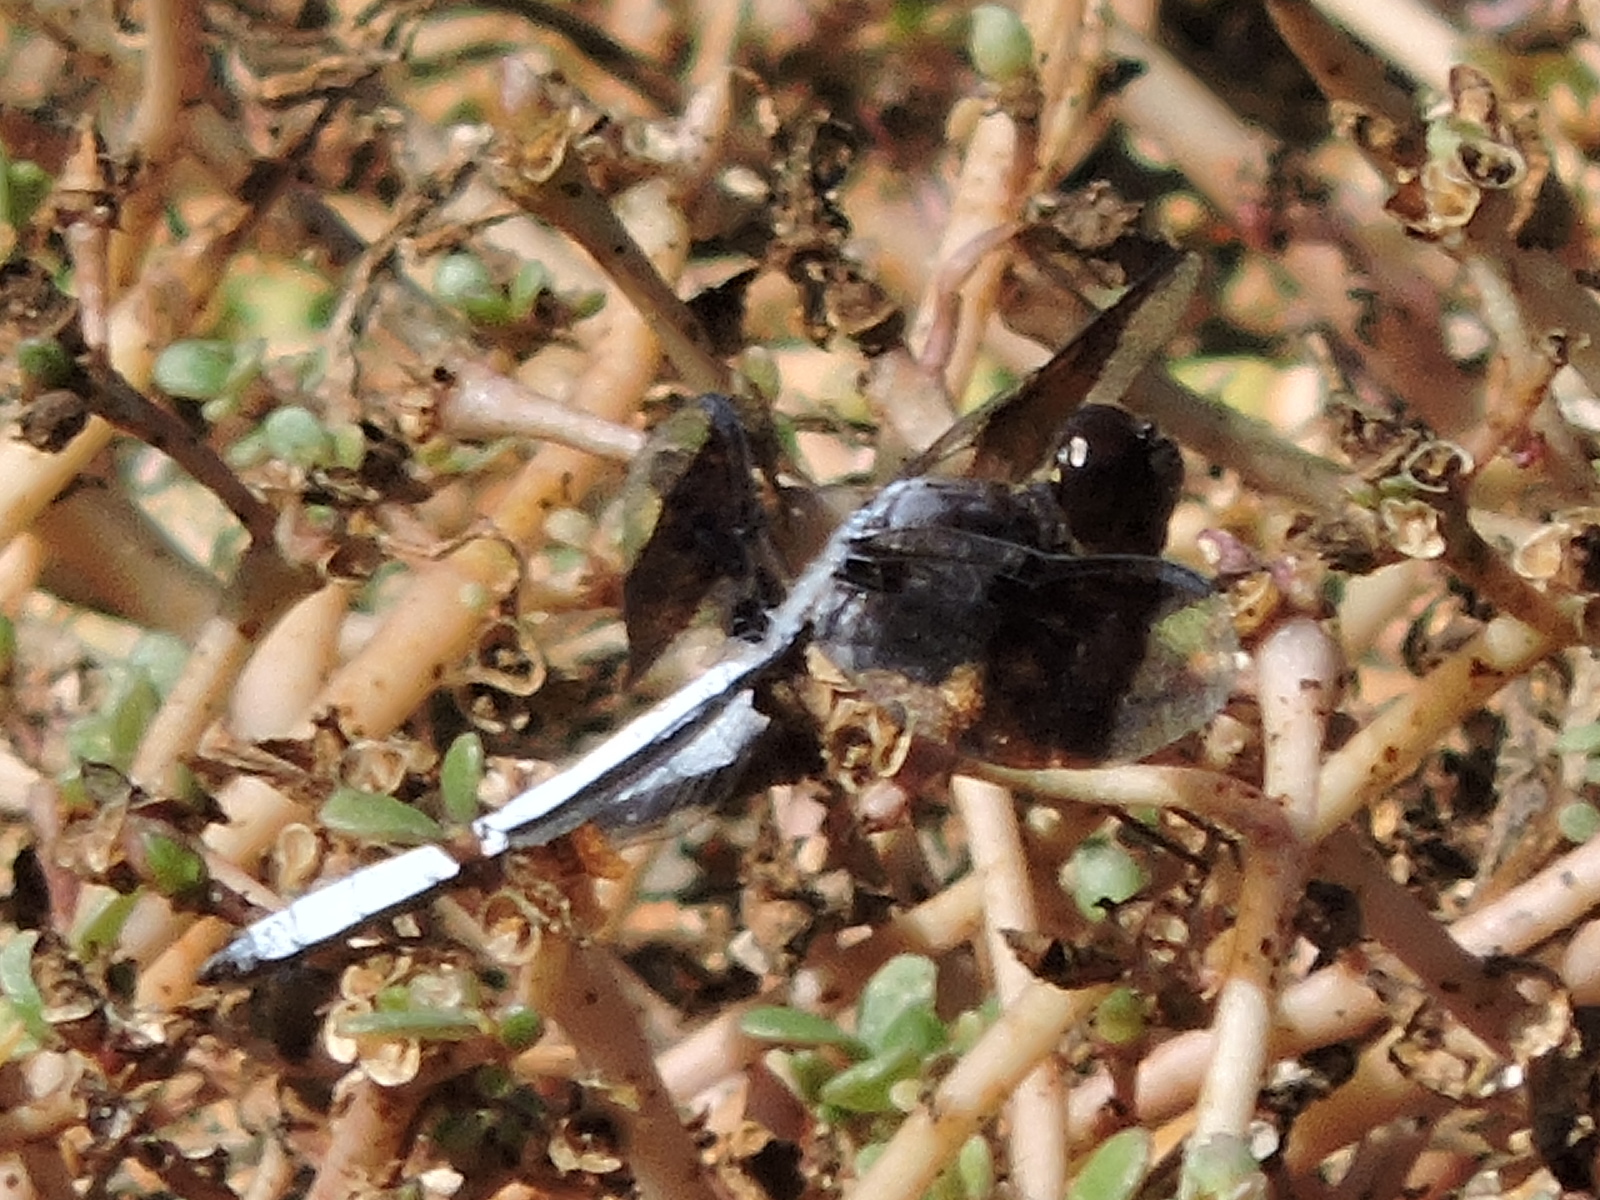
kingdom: Animalia
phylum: Arthropoda
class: Insecta
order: Odonata
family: Libellulidae
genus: Plathemis
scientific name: Plathemis lydia
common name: Common whitetail
